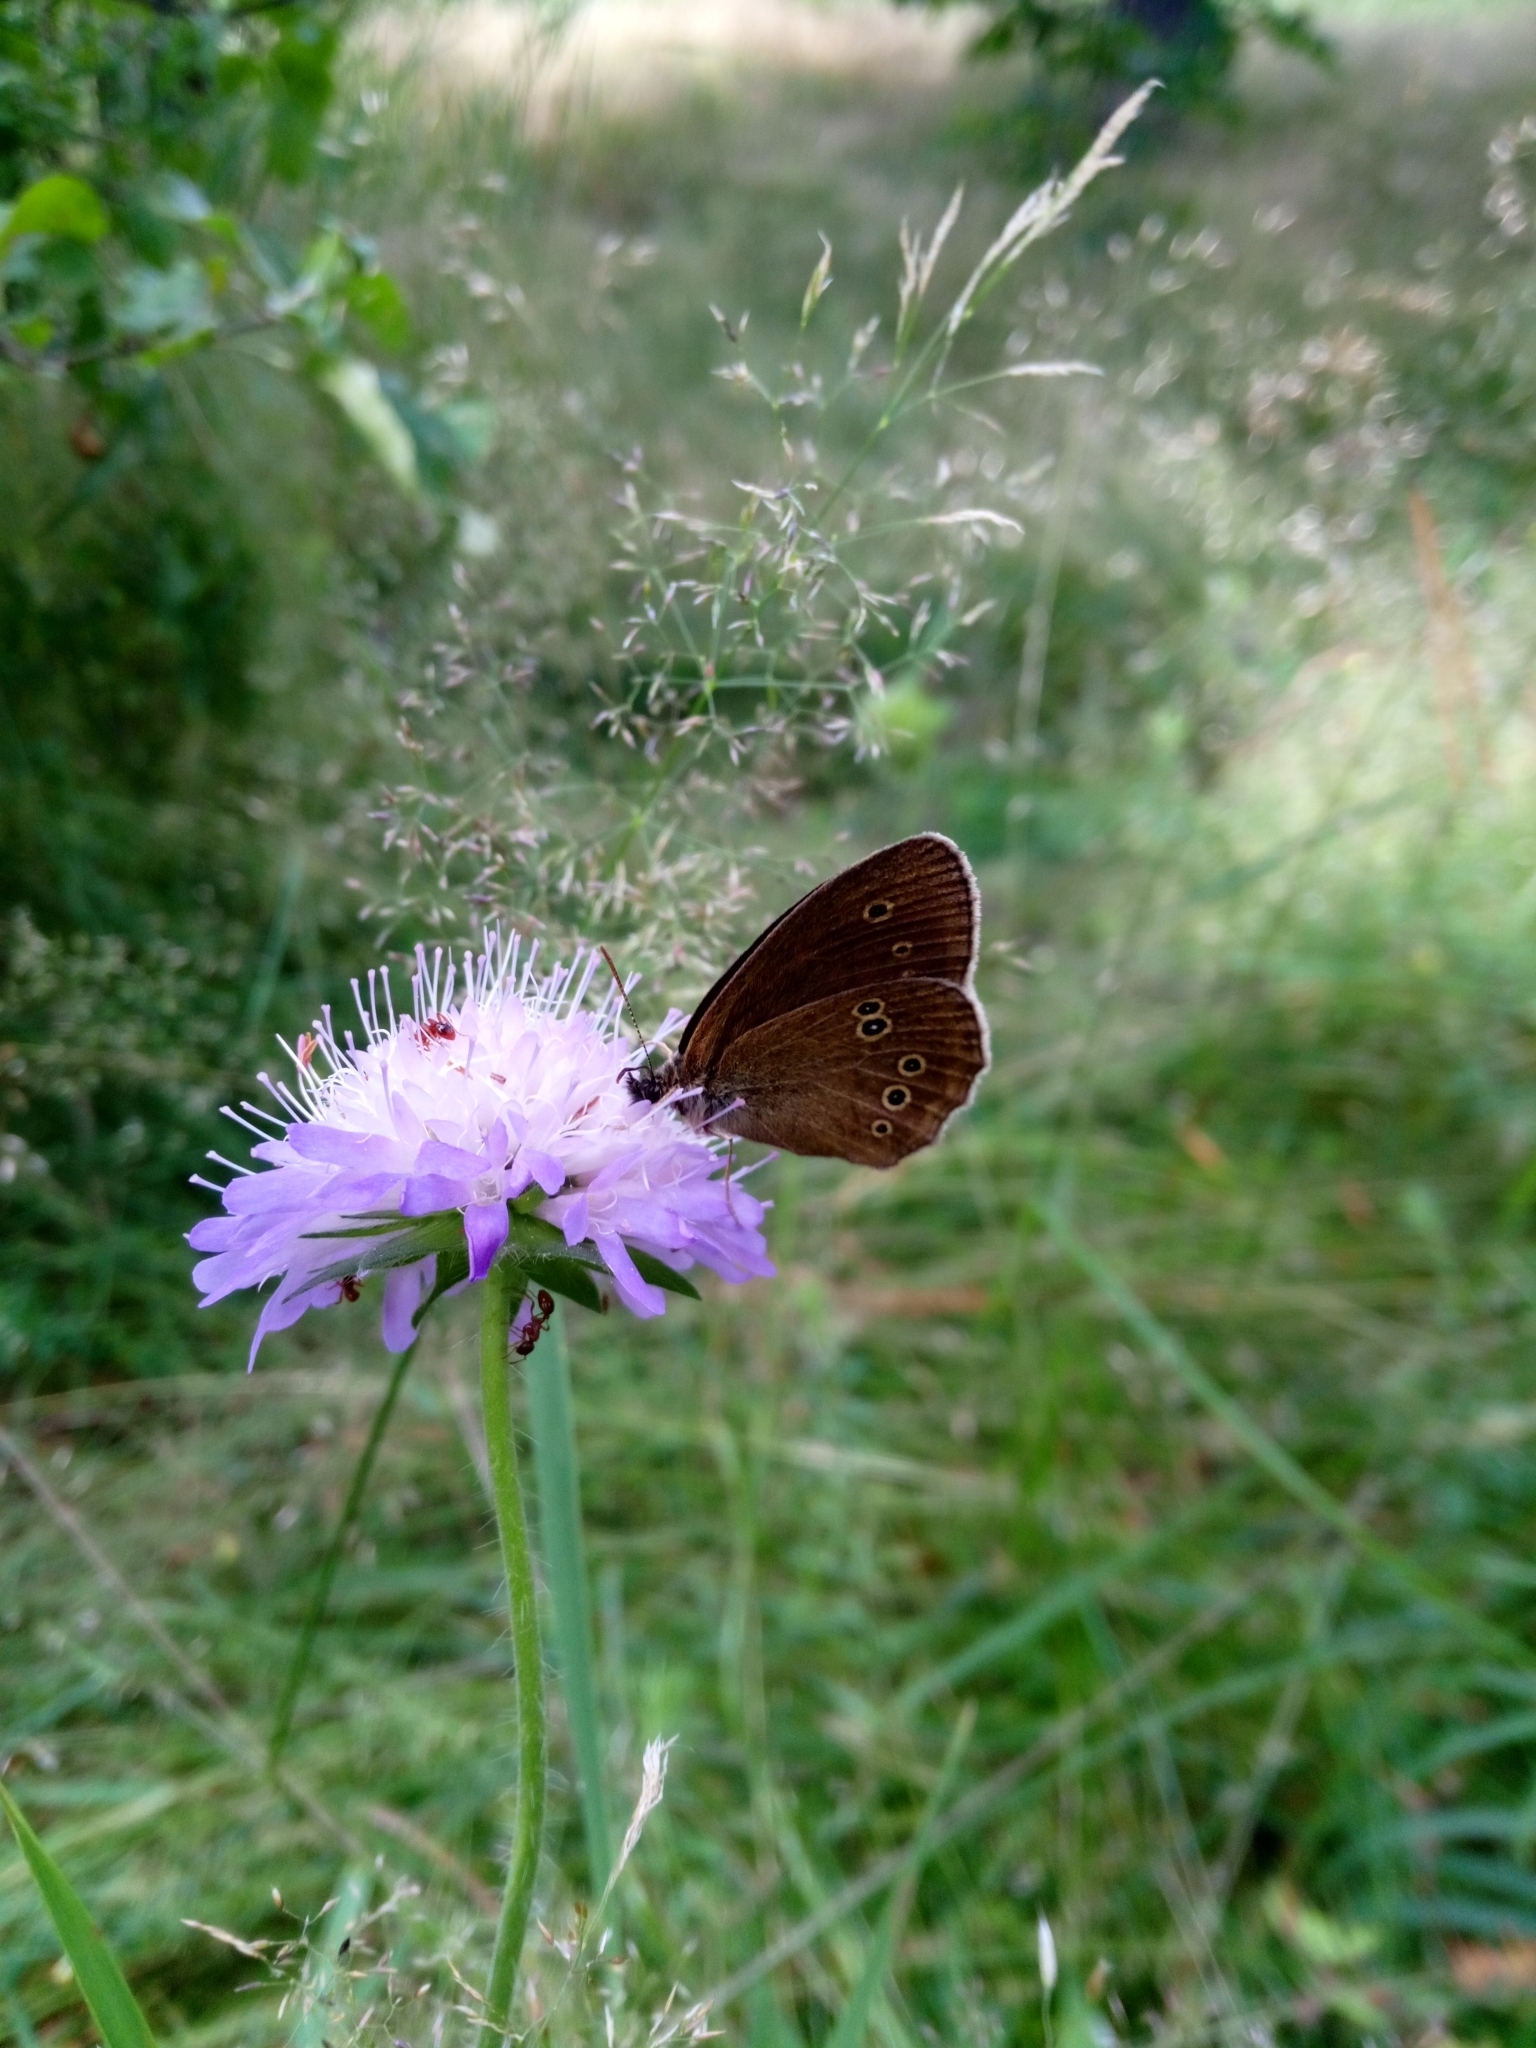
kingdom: Animalia
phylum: Arthropoda
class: Insecta
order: Lepidoptera
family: Nymphalidae
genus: Aphantopus
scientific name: Aphantopus hyperantus
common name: Ringlet
